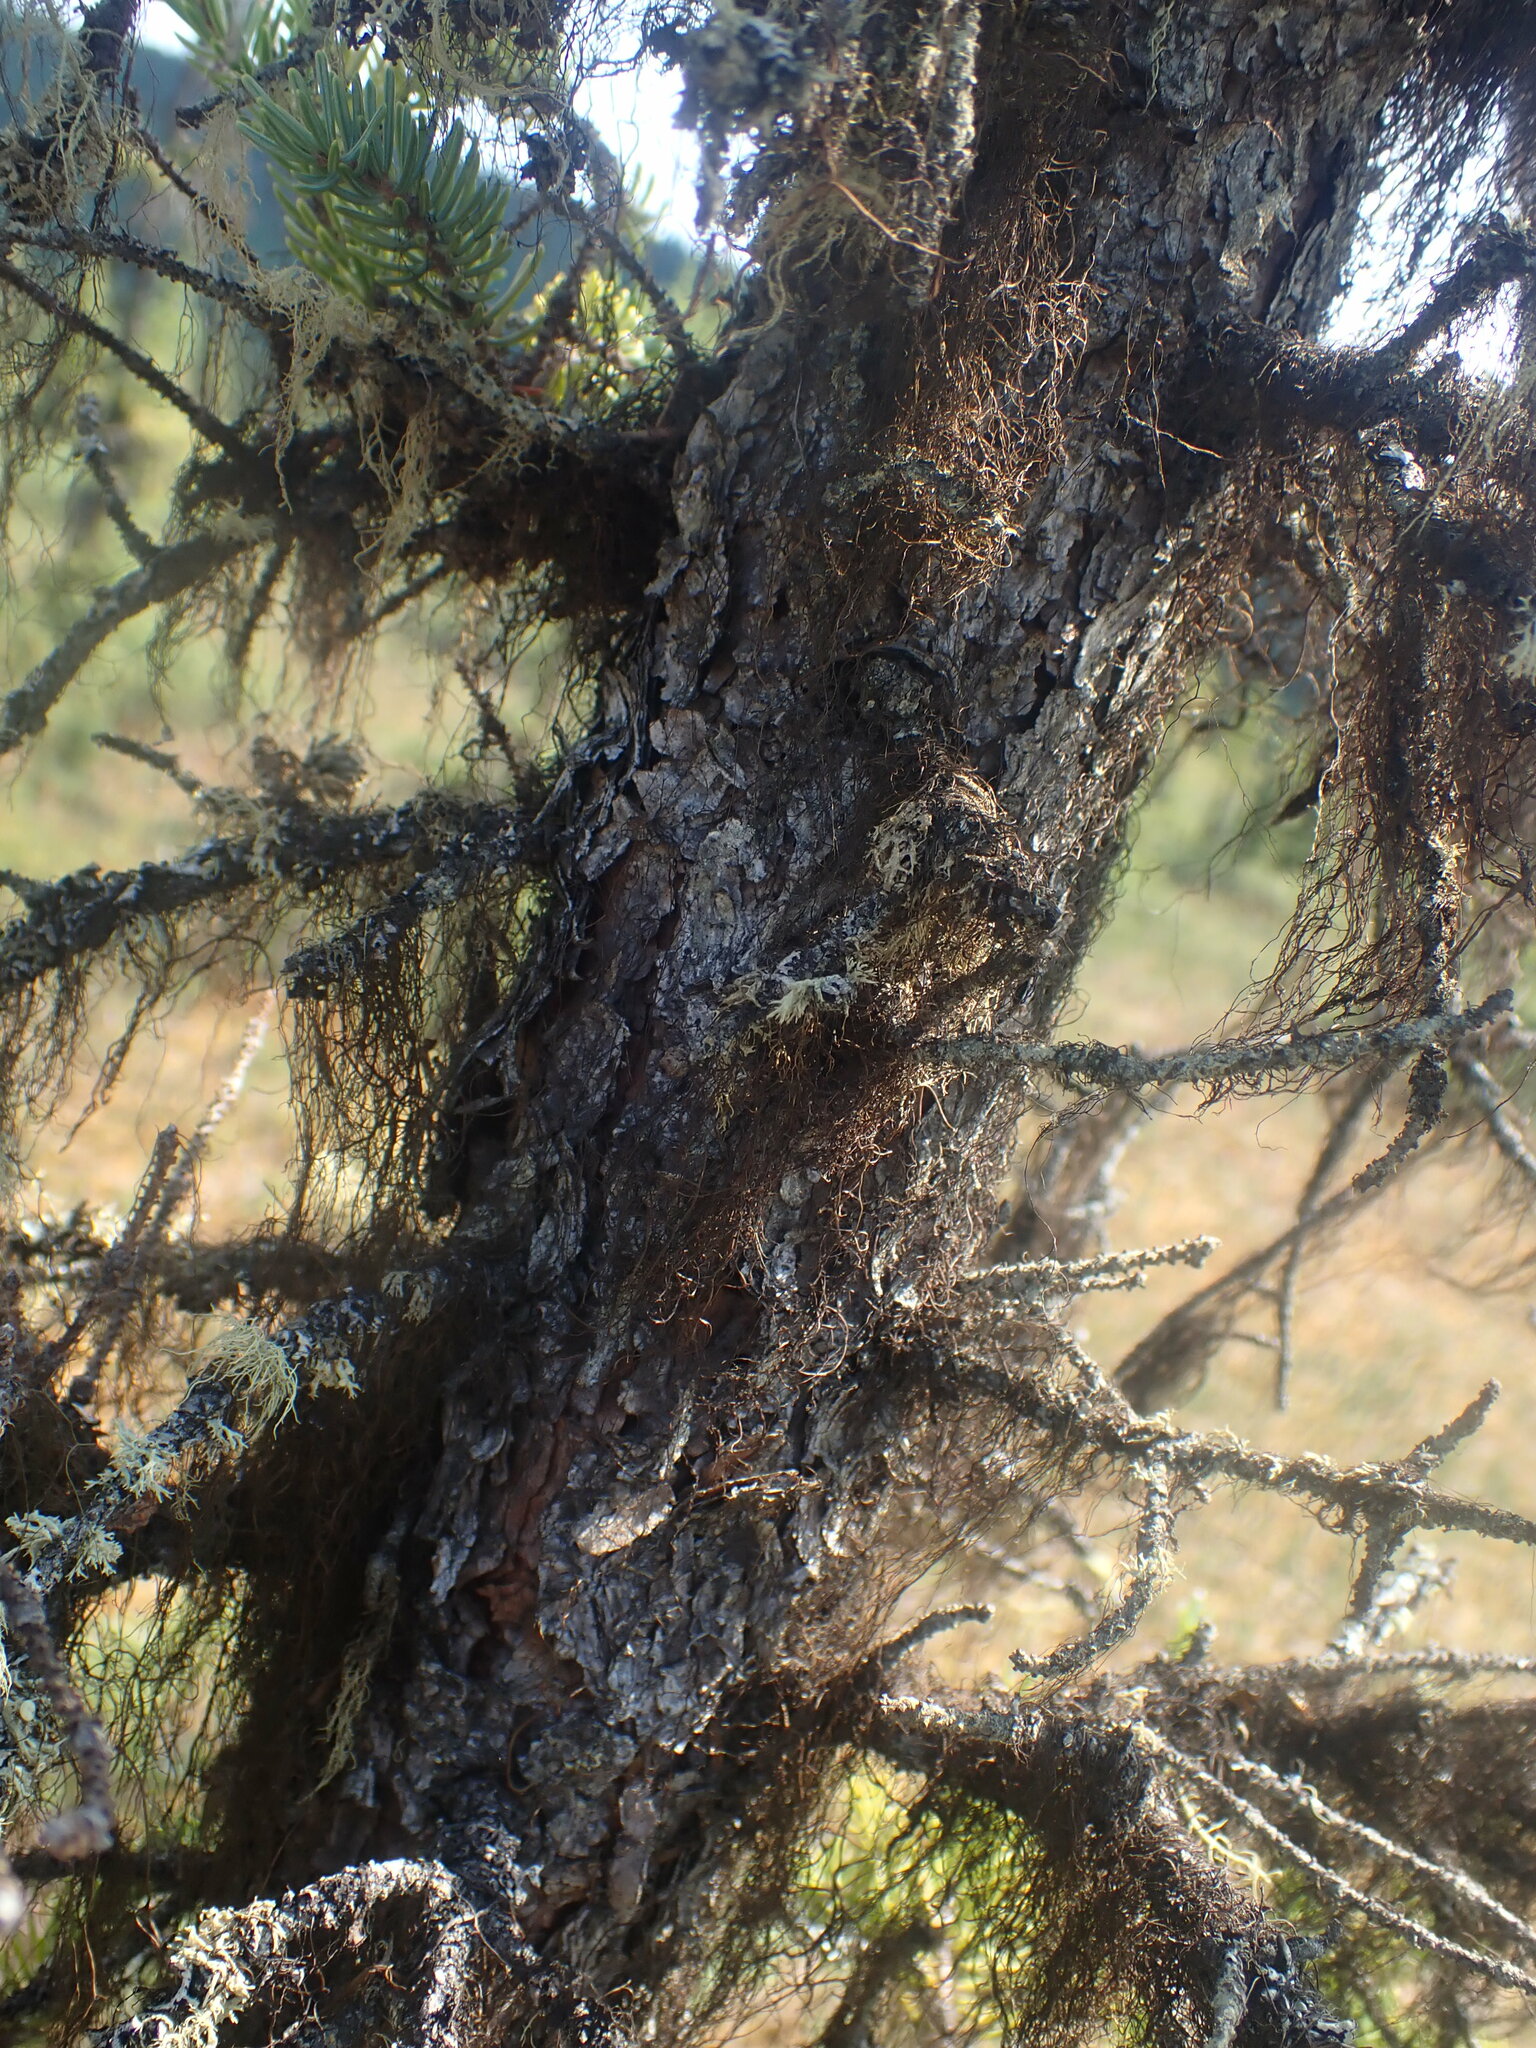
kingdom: Plantae
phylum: Tracheophyta
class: Pinopsida
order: Pinales
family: Pinaceae
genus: Picea
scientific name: Picea mariana
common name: Black spruce
